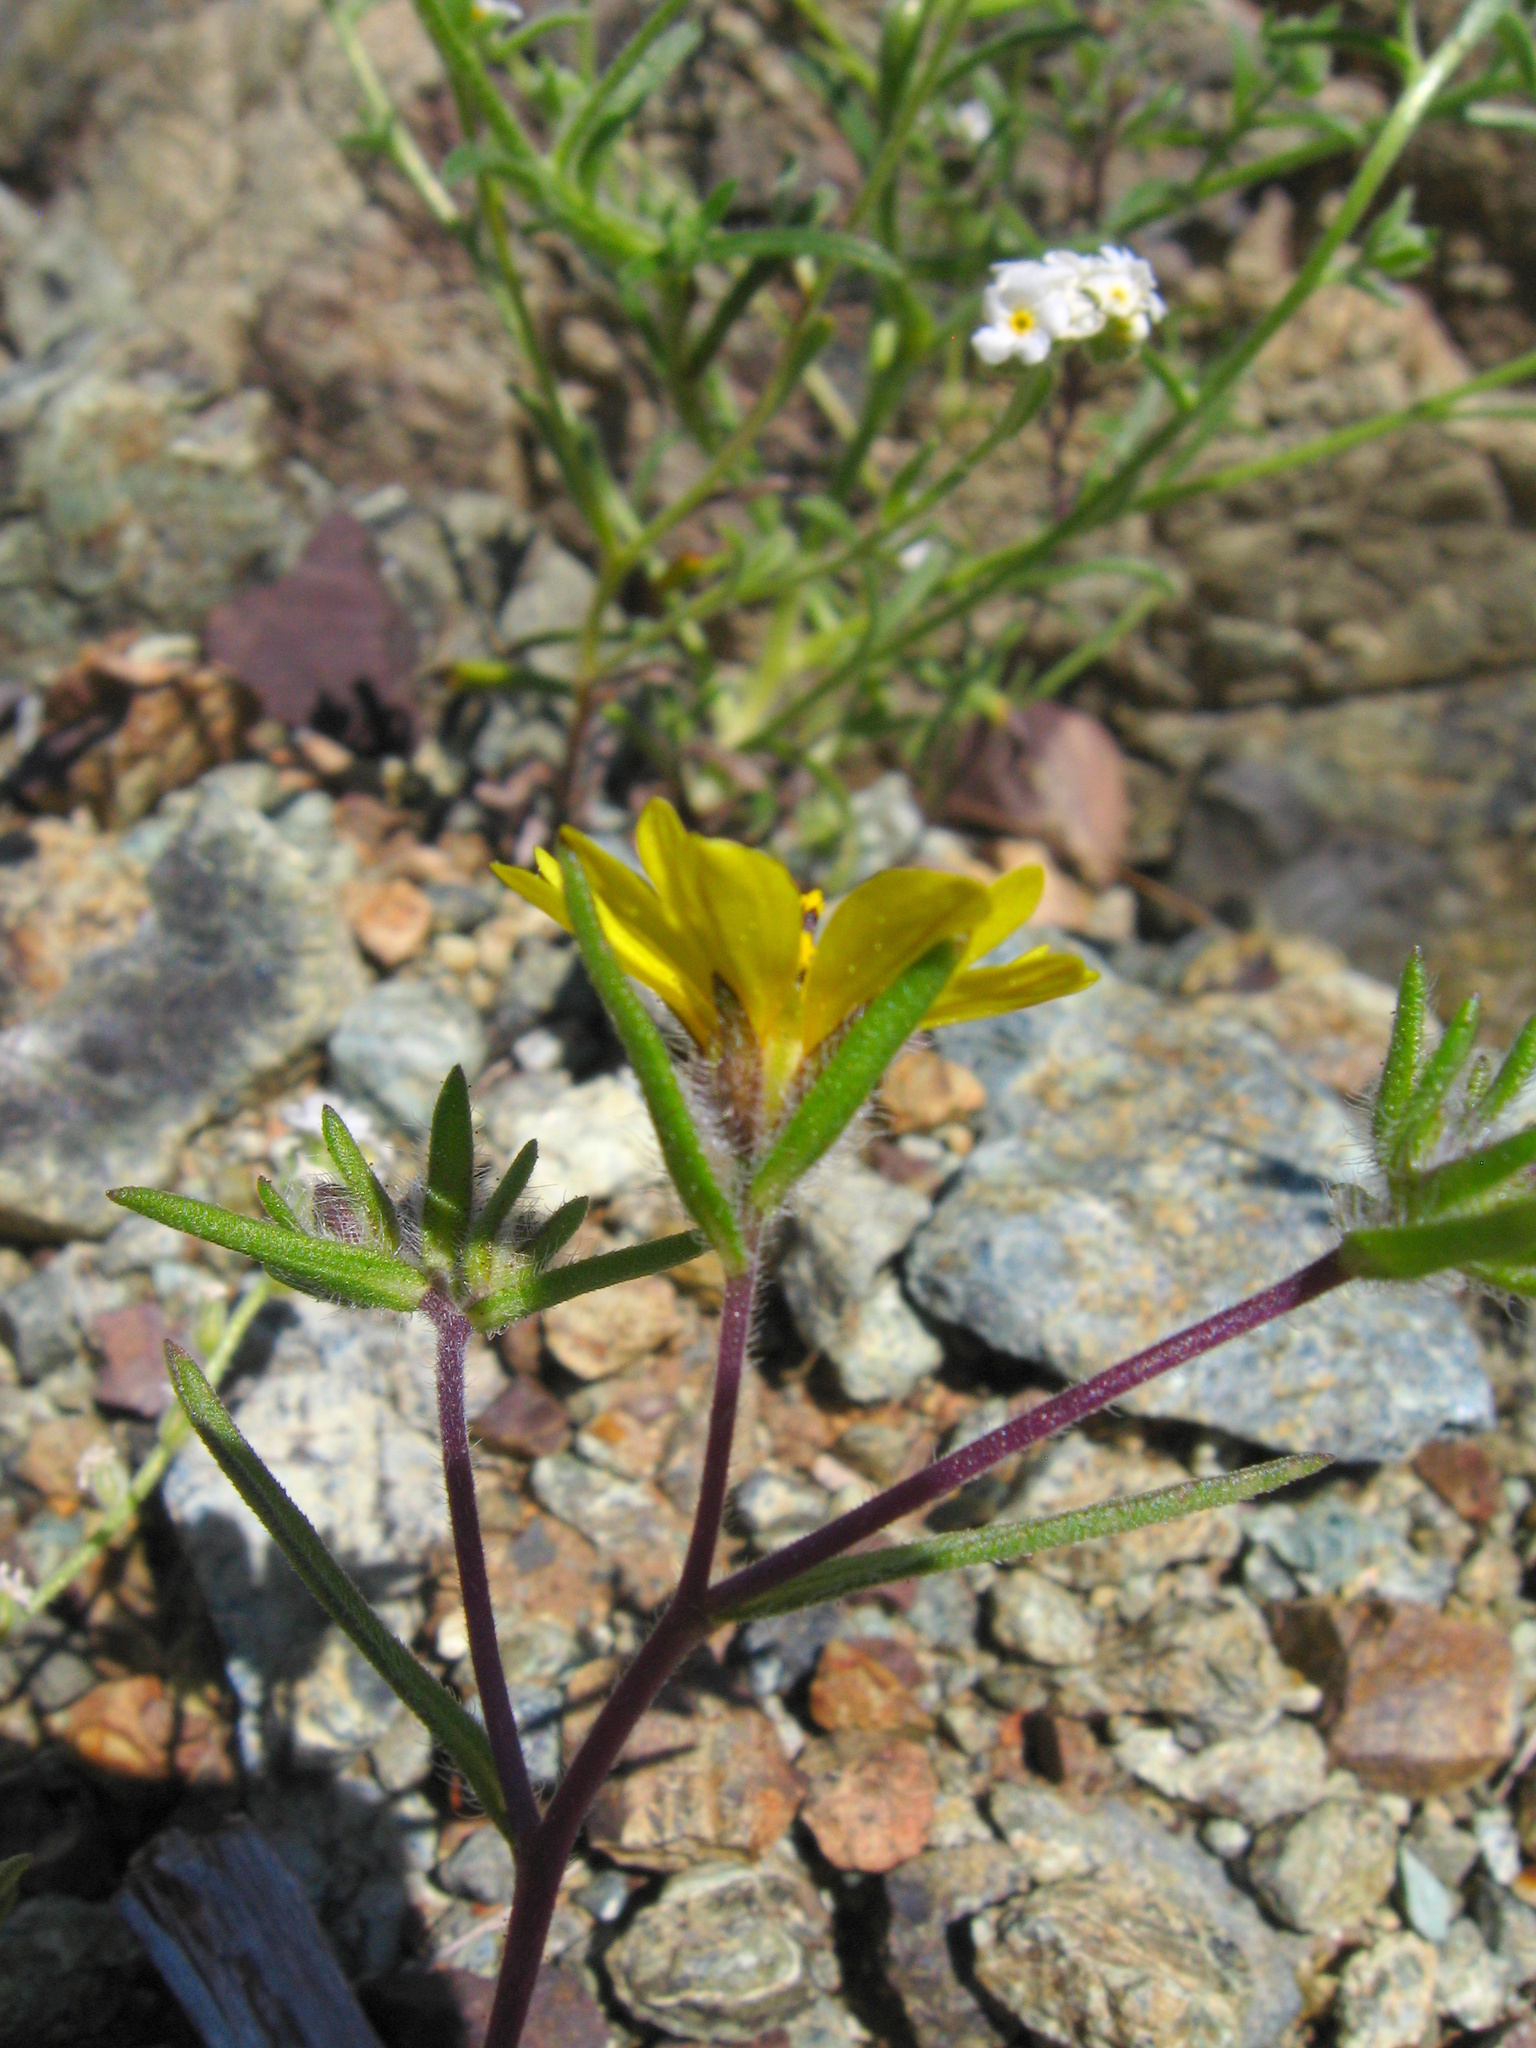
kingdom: Plantae
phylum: Tracheophyta
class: Magnoliopsida
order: Asterales
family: Asteraceae
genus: Centromadia
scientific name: Centromadia fitchii
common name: Fitch's spikeweed
